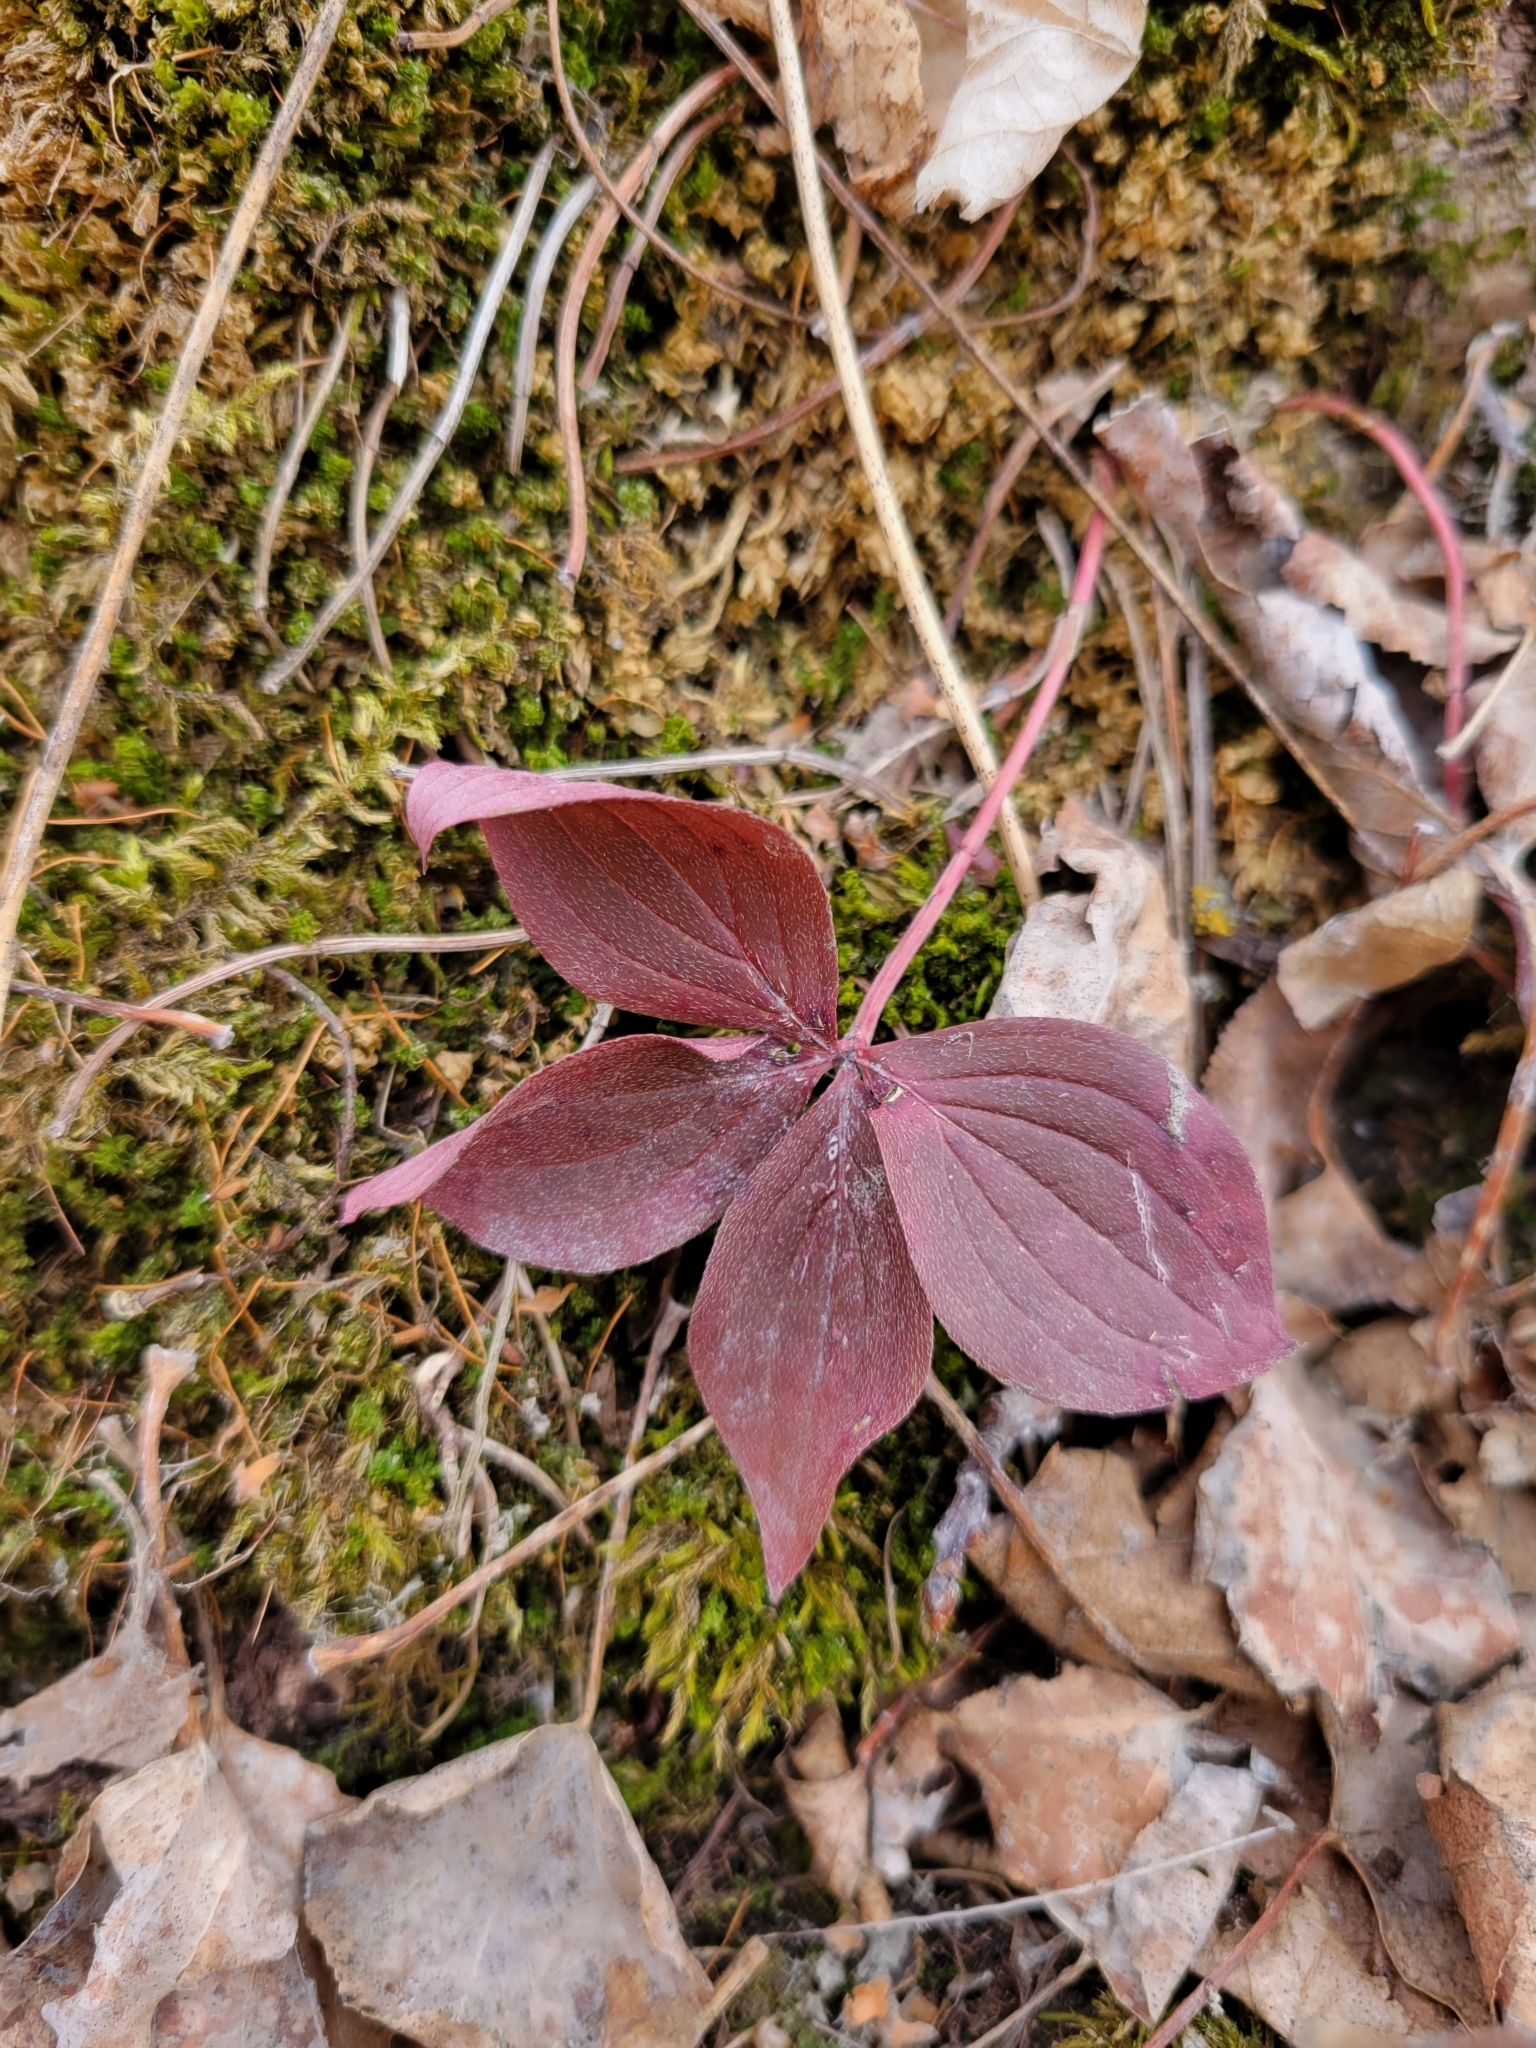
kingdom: Plantae
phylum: Tracheophyta
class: Magnoliopsida
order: Cornales
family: Cornaceae
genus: Cornus
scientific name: Cornus canadensis
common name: Creeping dogwood
